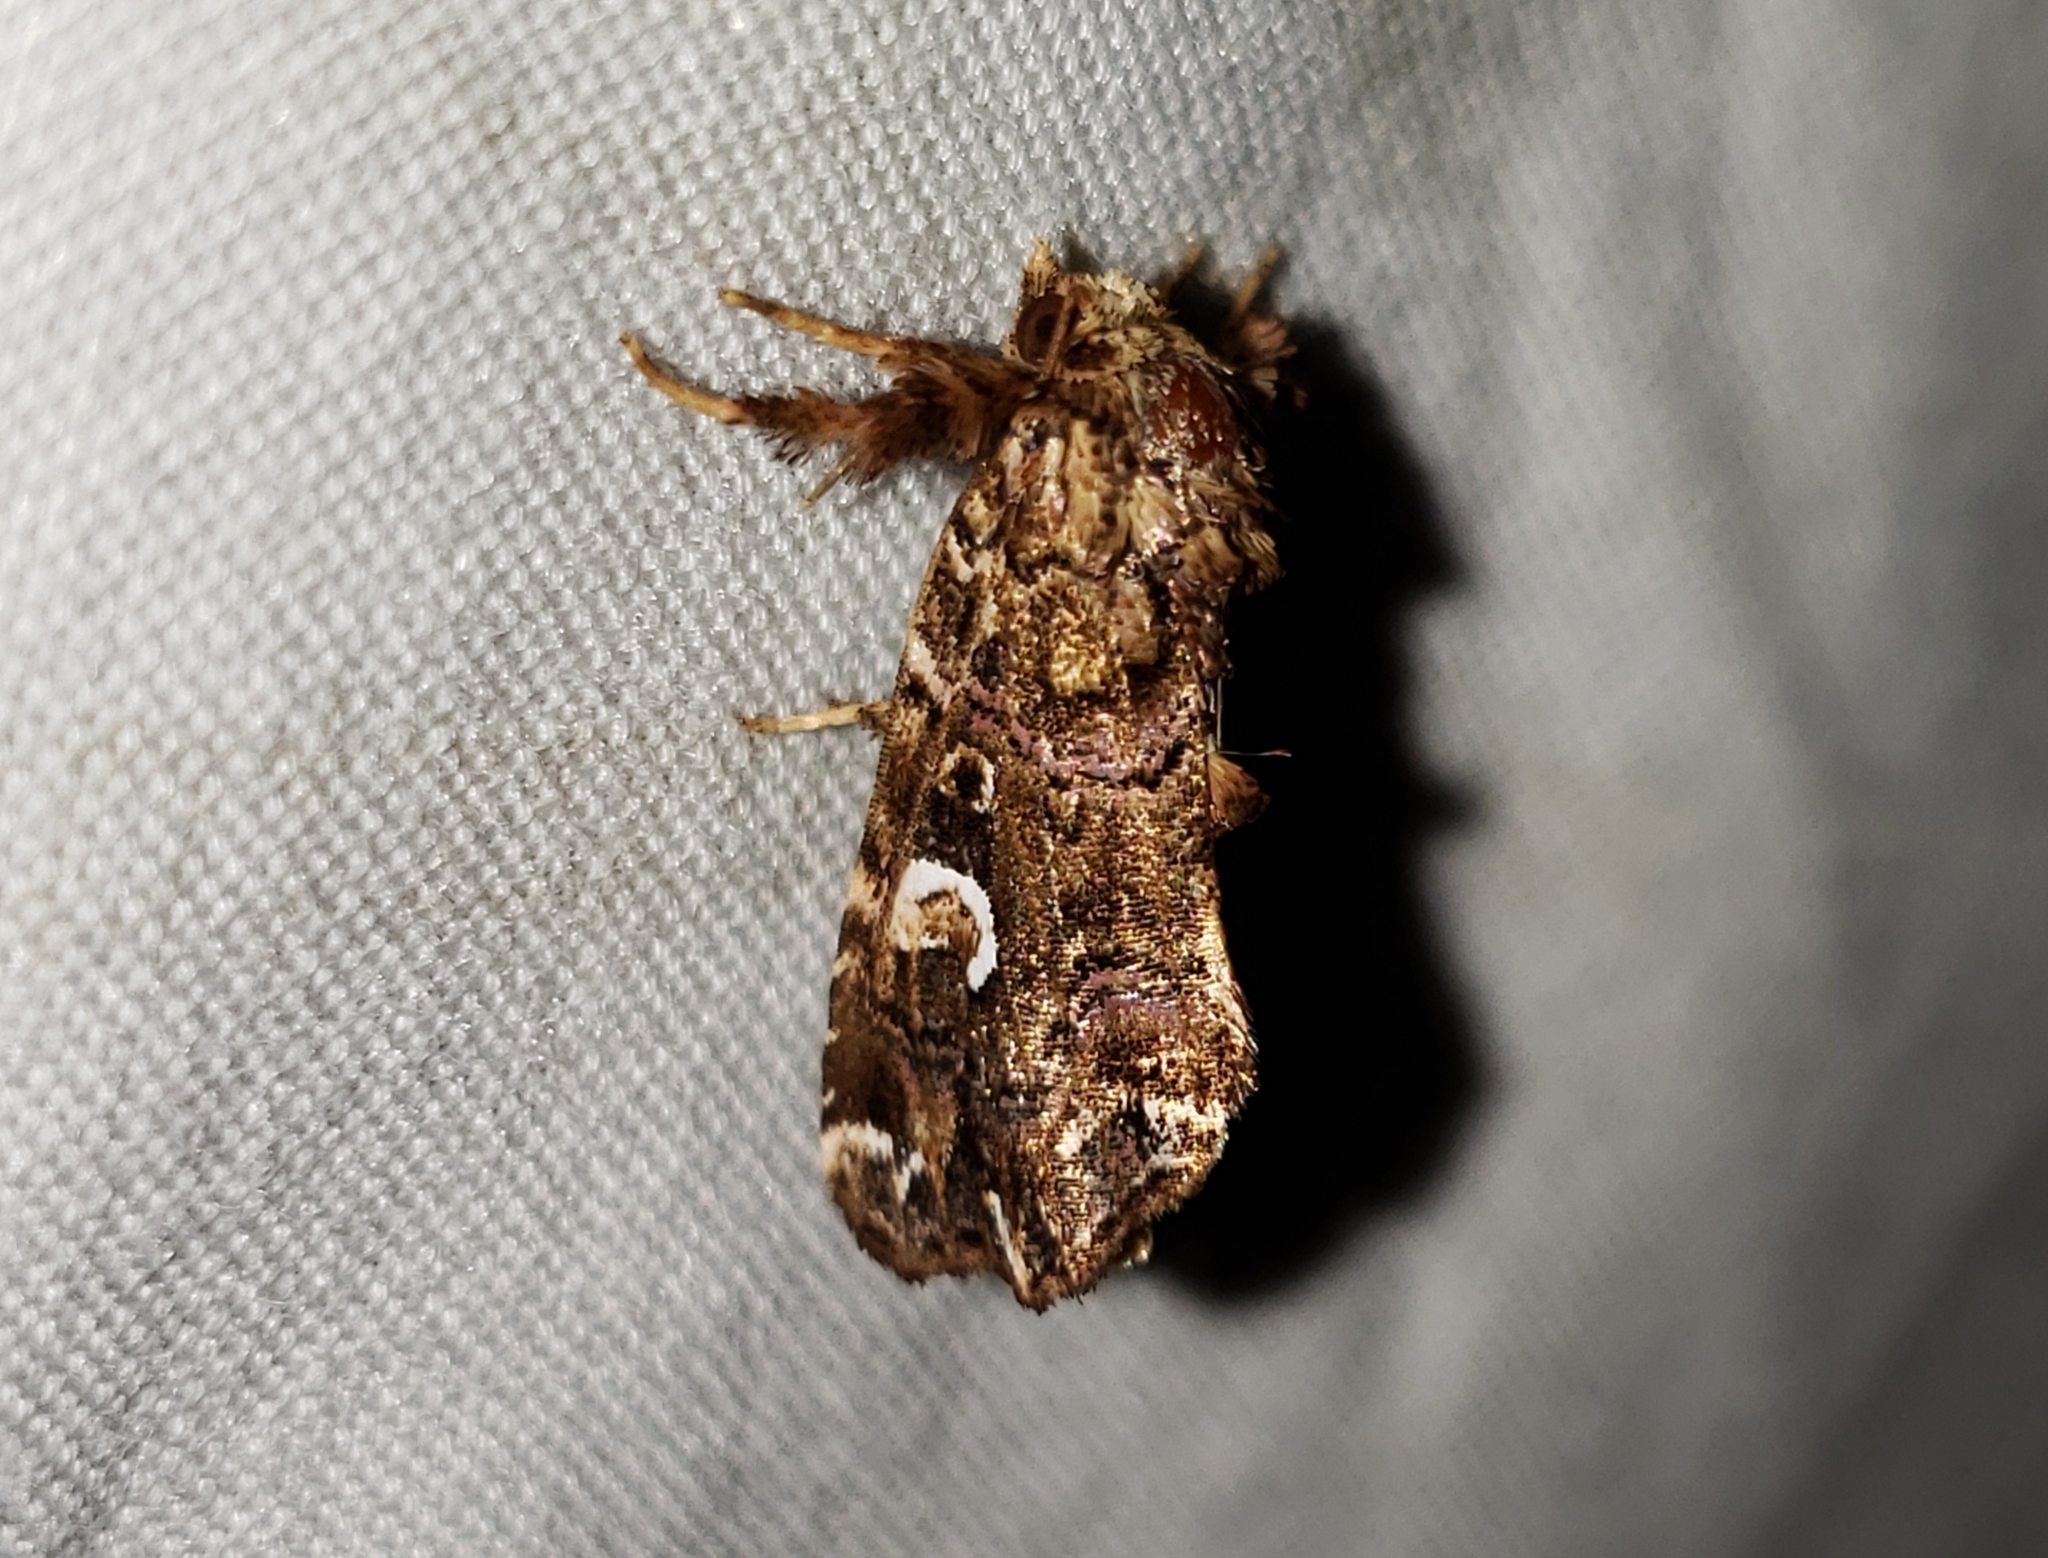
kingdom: Animalia
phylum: Arthropoda
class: Insecta
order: Lepidoptera
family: Noctuidae
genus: Callopistria
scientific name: Callopistria mollissima
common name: Pink-shaded fern moth
